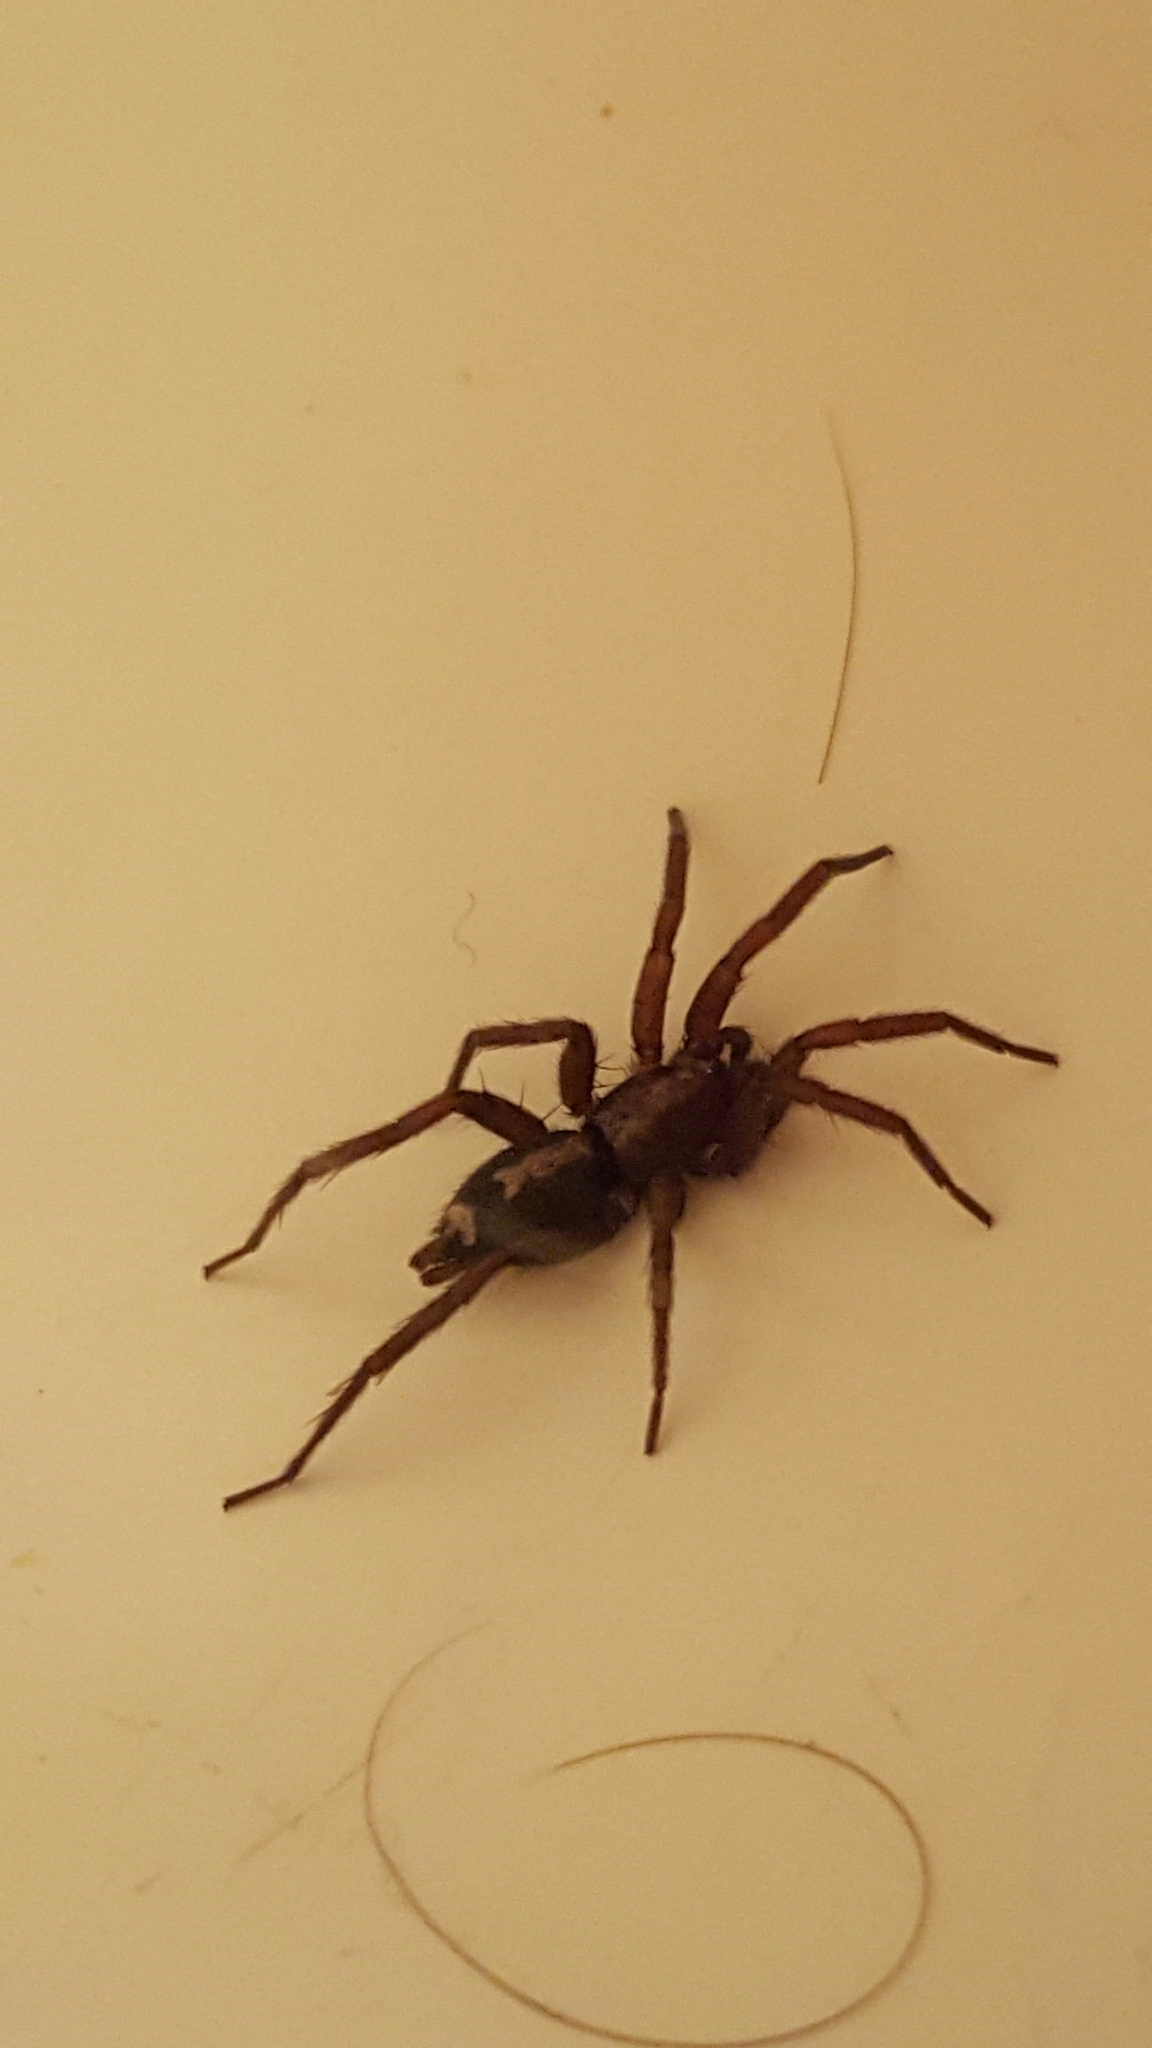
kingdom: Animalia
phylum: Arthropoda
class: Arachnida
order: Araneae
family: Gnaphosidae
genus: Herpyllus
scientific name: Herpyllus propinquus
